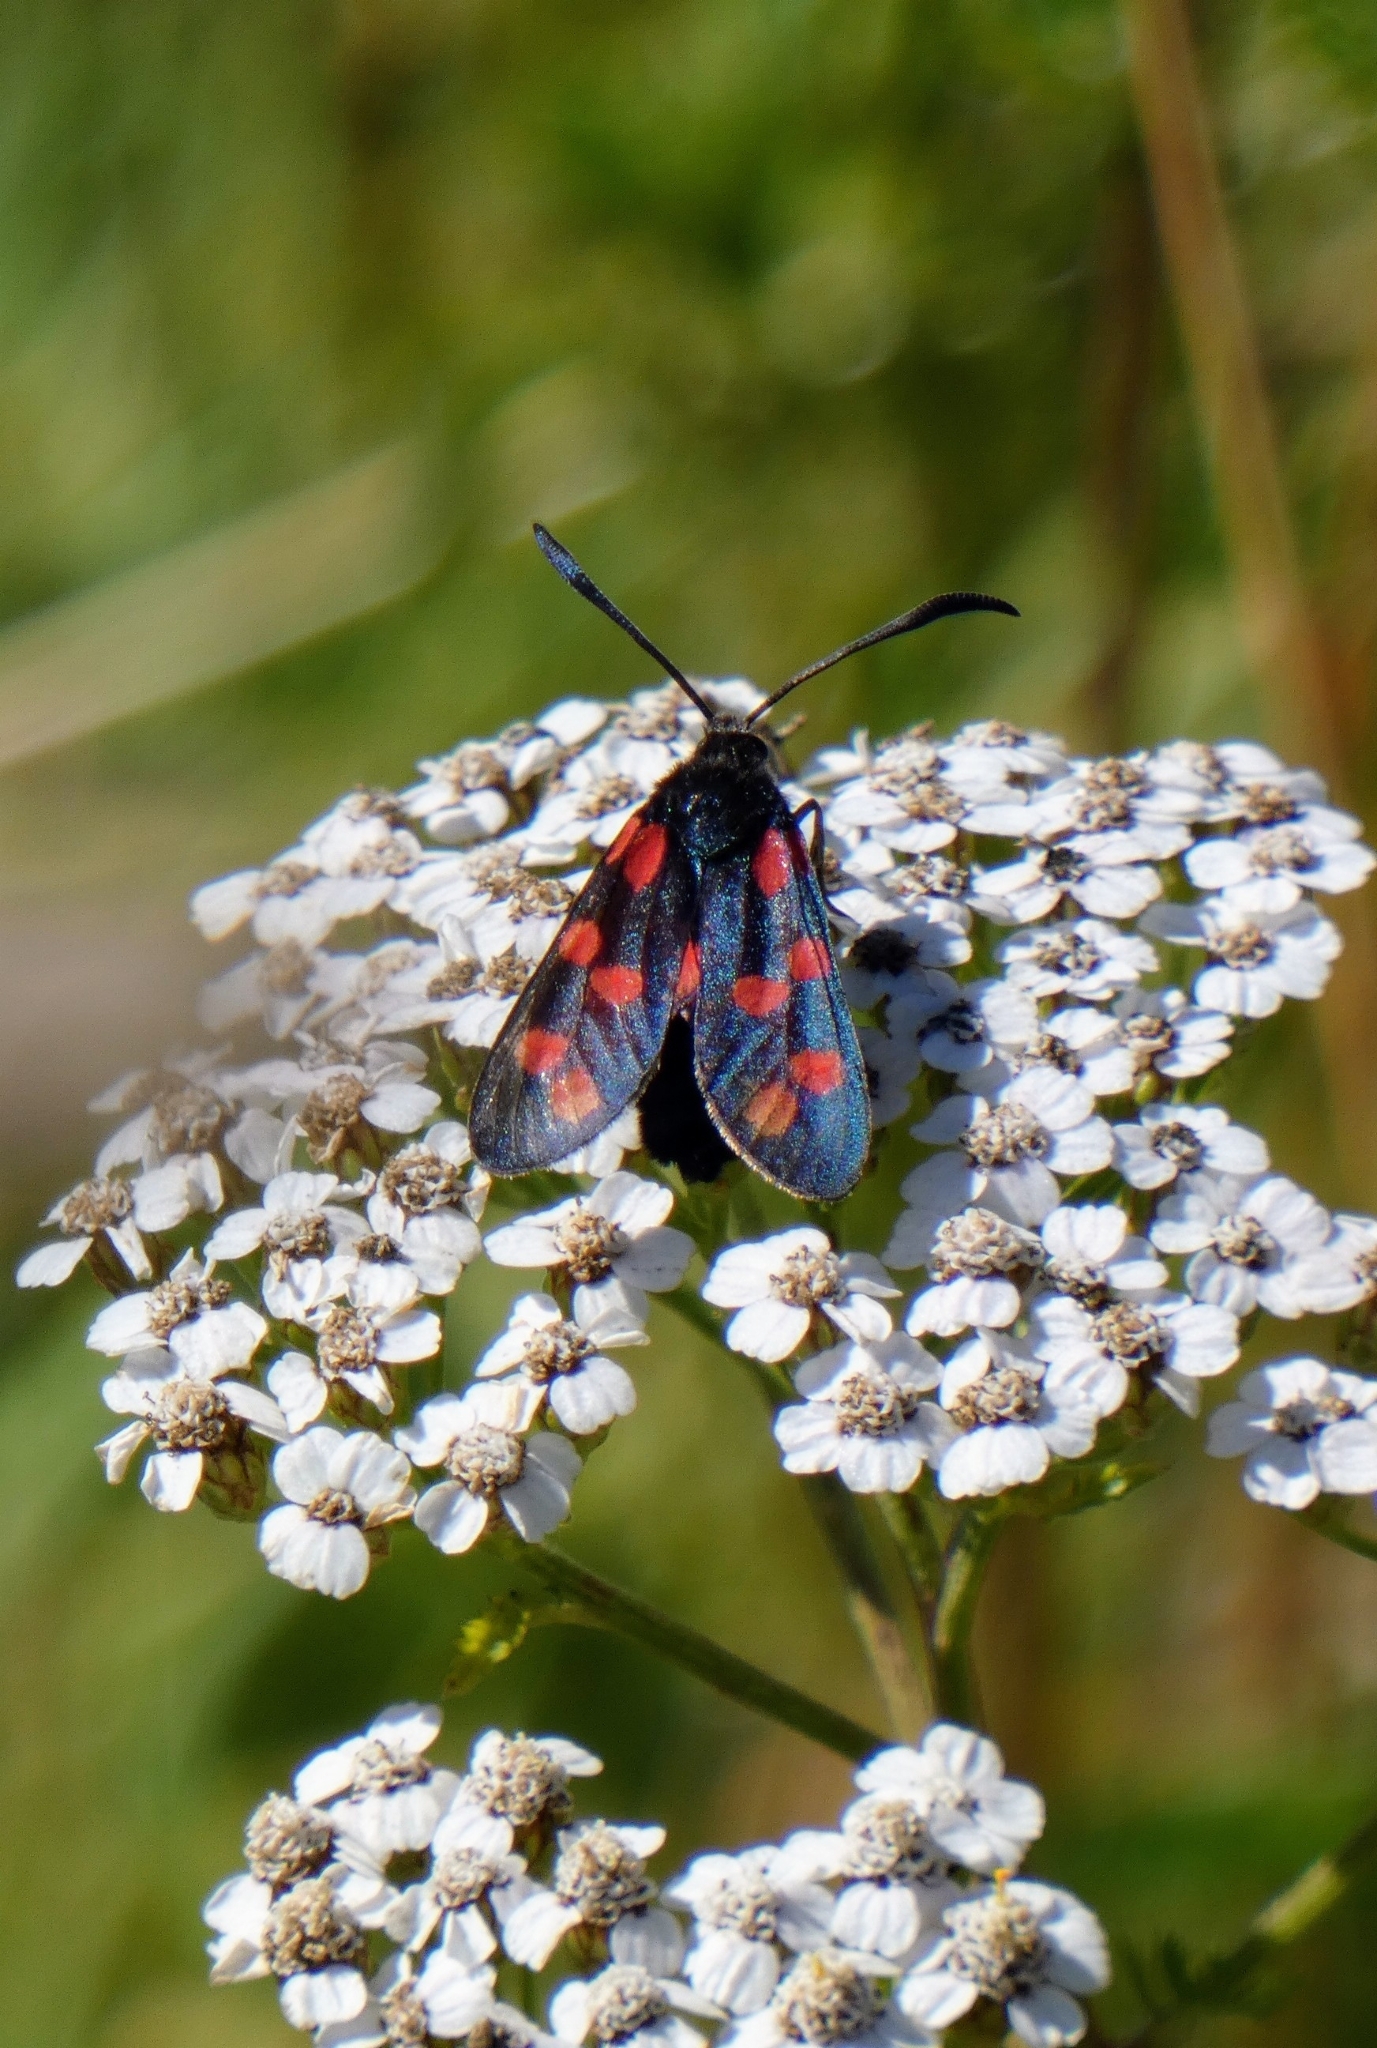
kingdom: Animalia
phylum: Arthropoda
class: Insecta
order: Lepidoptera
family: Zygaenidae
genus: Zygaena
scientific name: Zygaena filipendulae
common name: Six-spot burnet
